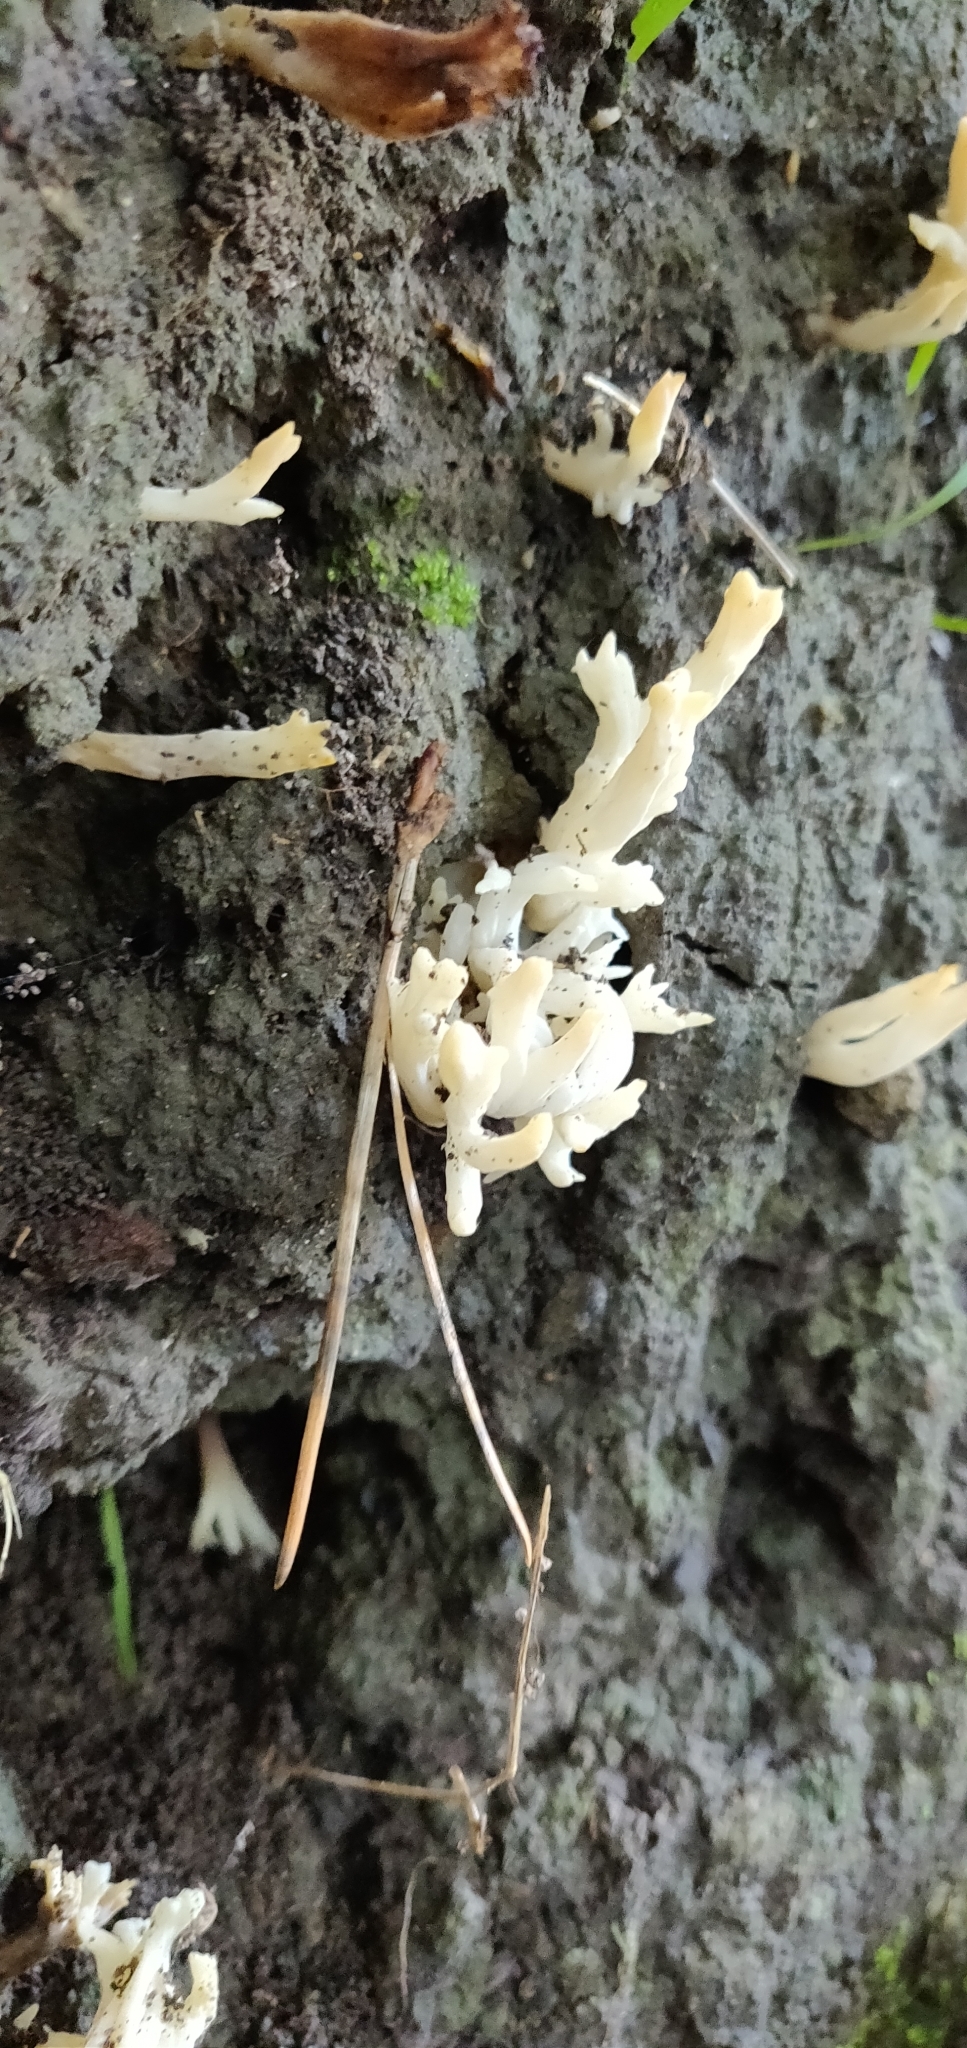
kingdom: Fungi
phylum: Basidiomycota
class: Agaricomycetes
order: Cantharellales
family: Hydnaceae
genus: Clavulina
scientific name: Clavulina rugosa
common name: Wrinkled club
